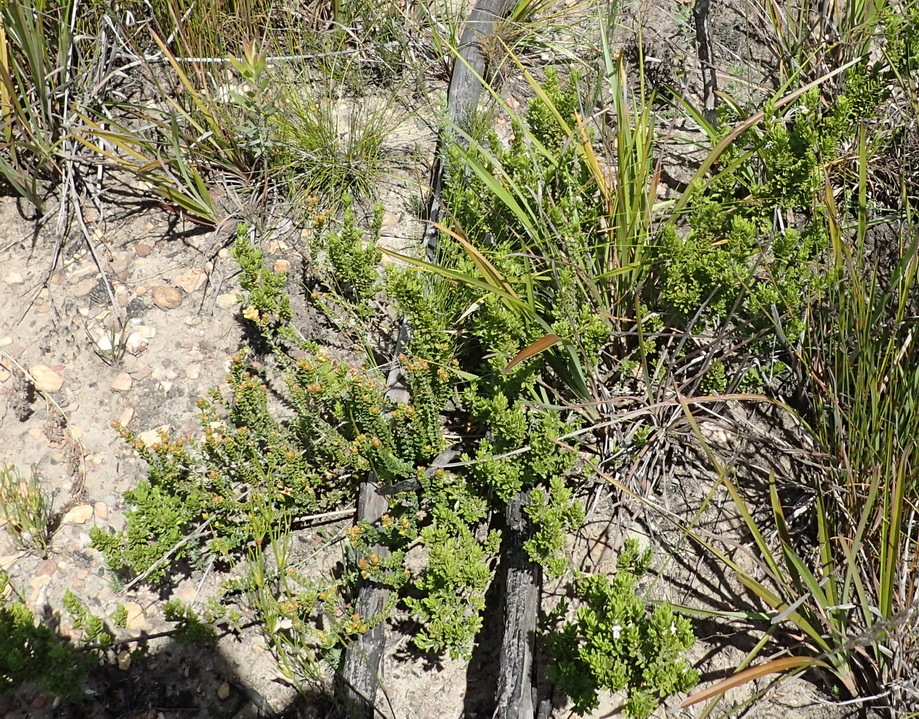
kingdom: Plantae
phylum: Tracheophyta
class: Magnoliopsida
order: Fabales
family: Fabaceae
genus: Psoralea
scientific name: Psoralea heterosepala
